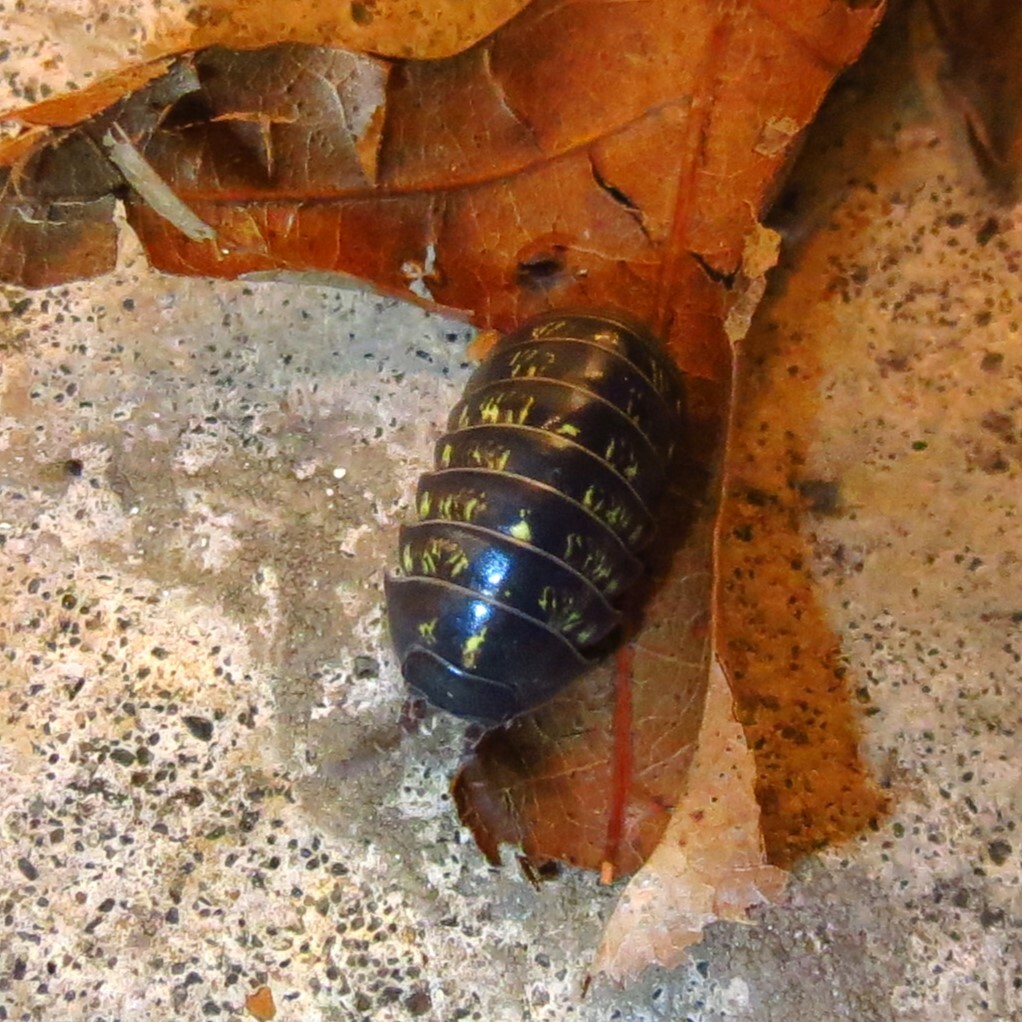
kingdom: Animalia
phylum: Arthropoda
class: Malacostraca
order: Isopoda
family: Armadillidiidae
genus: Armadillidium
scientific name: Armadillidium vulgare
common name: Common pill woodlouse
